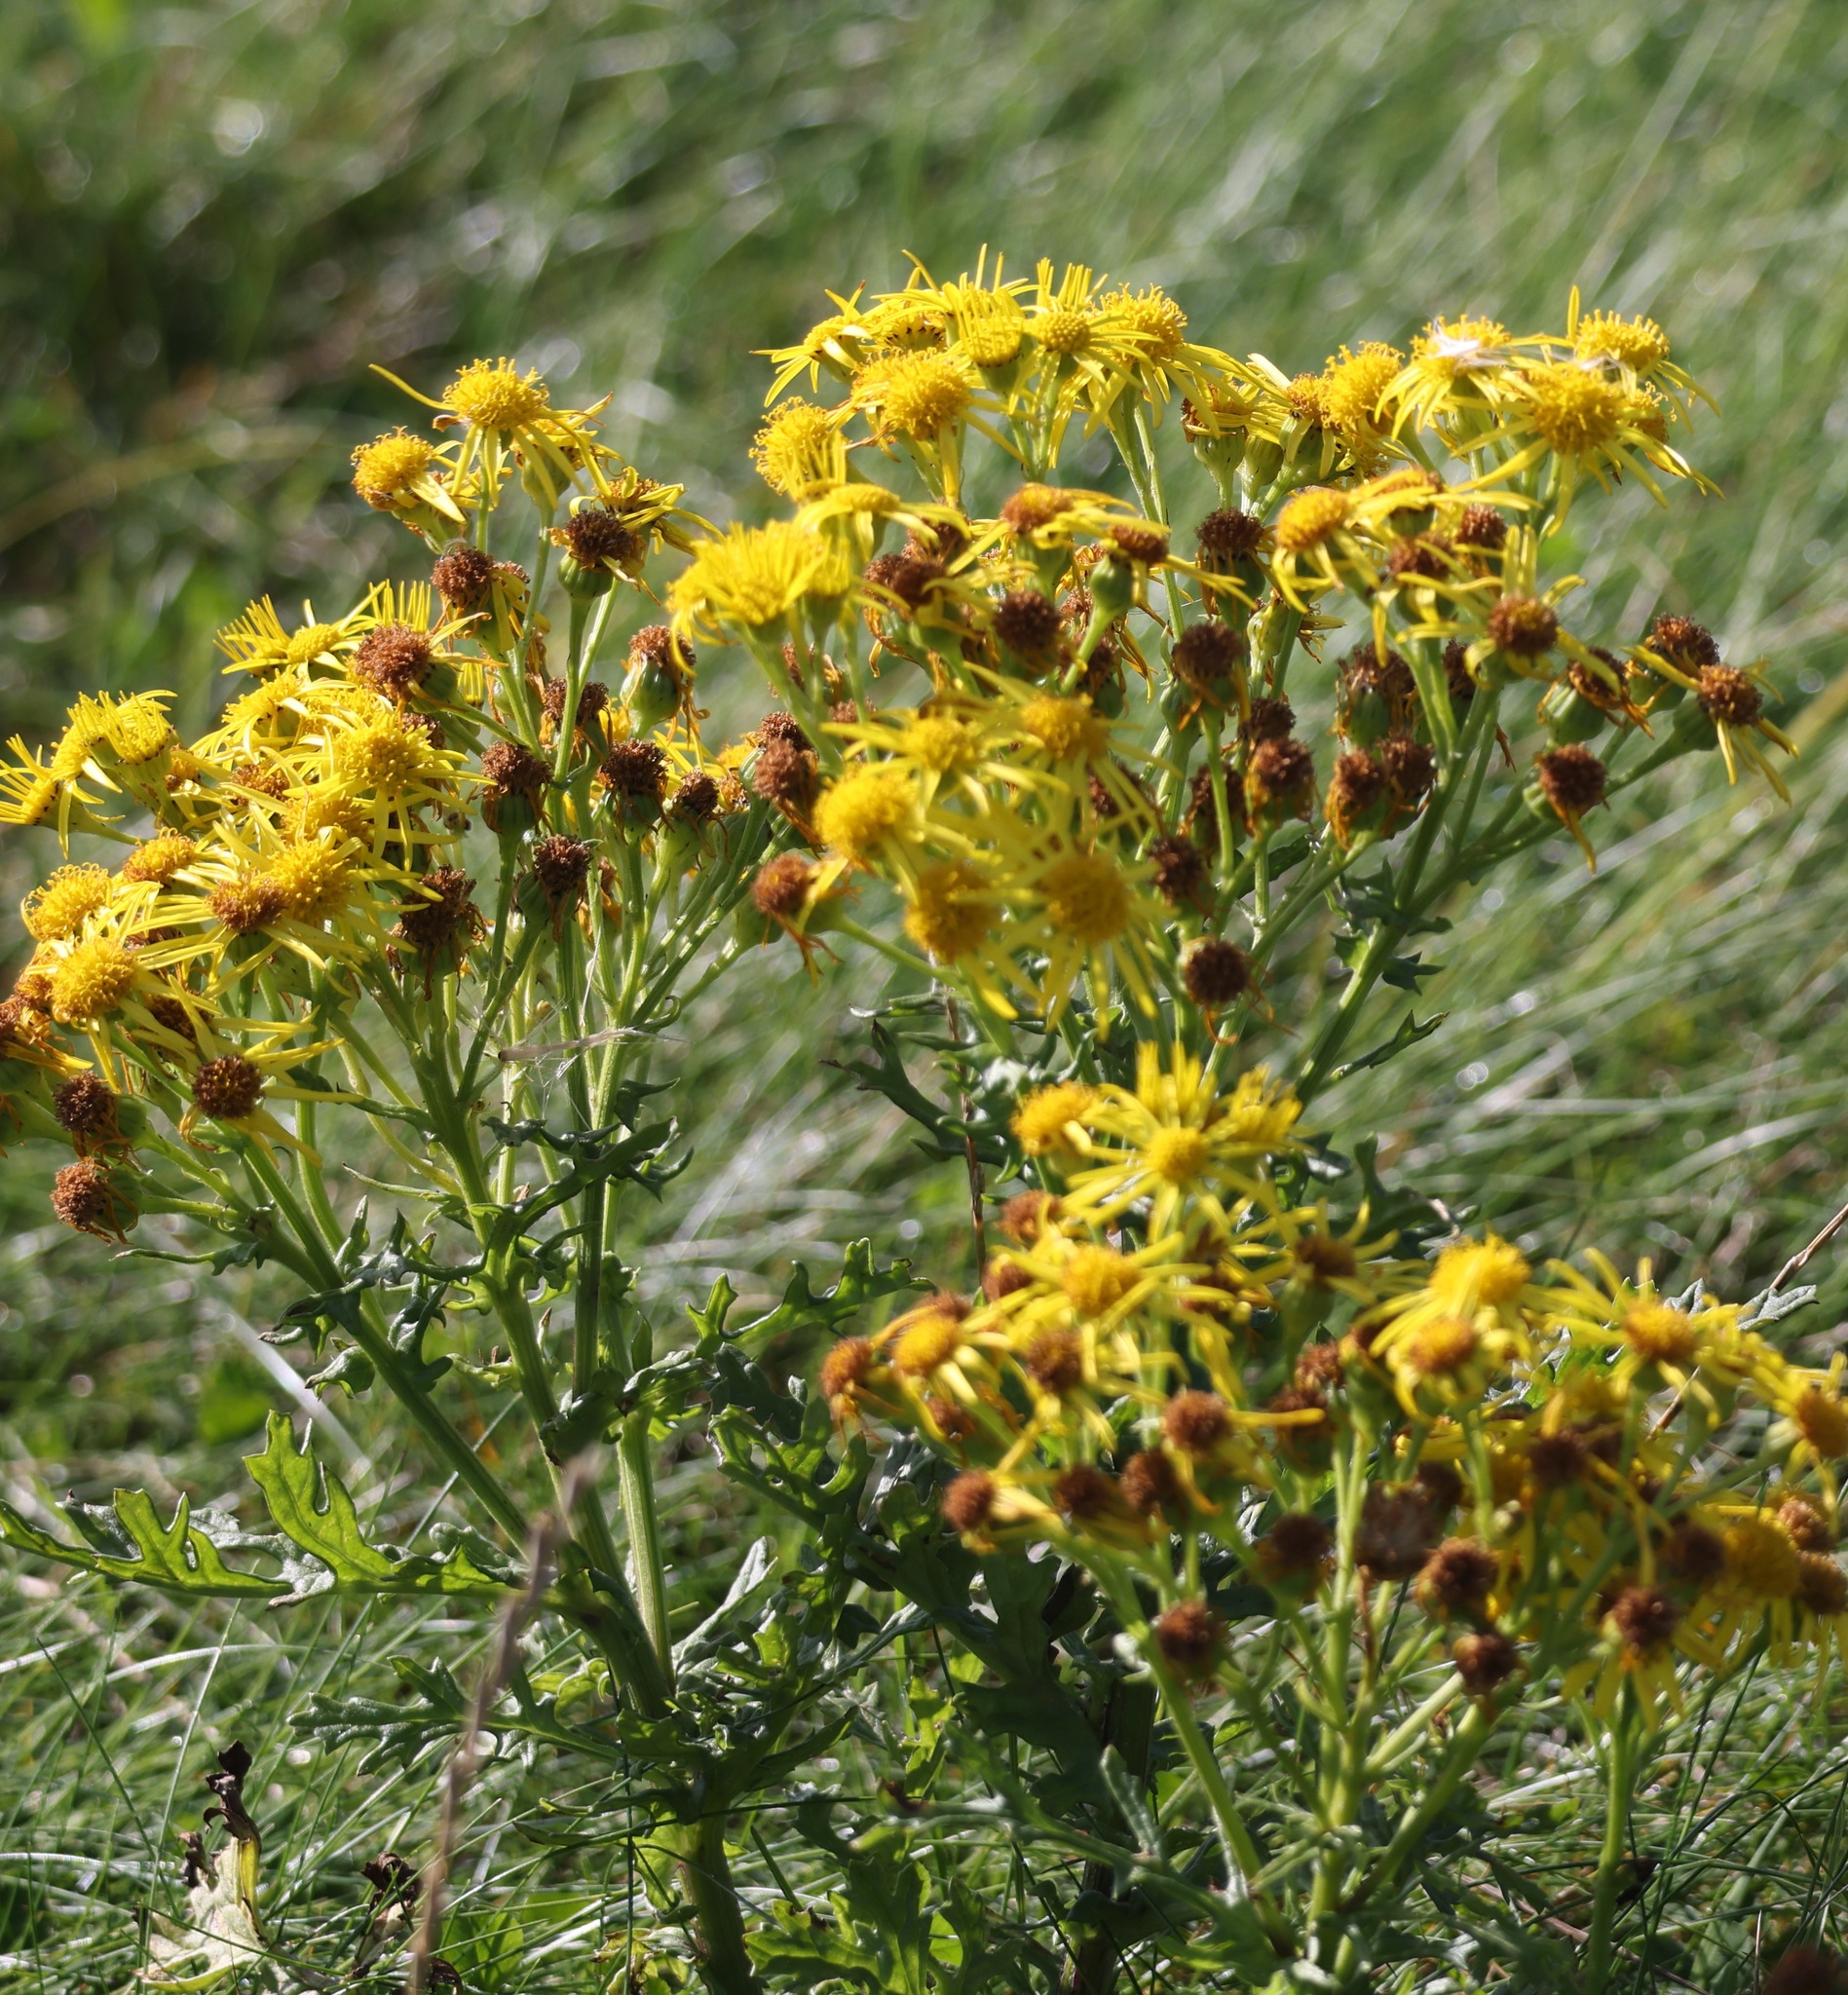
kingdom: Plantae
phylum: Tracheophyta
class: Magnoliopsida
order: Asterales
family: Asteraceae
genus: Jacobaea
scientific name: Jacobaea vulgaris
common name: Stinking willie
